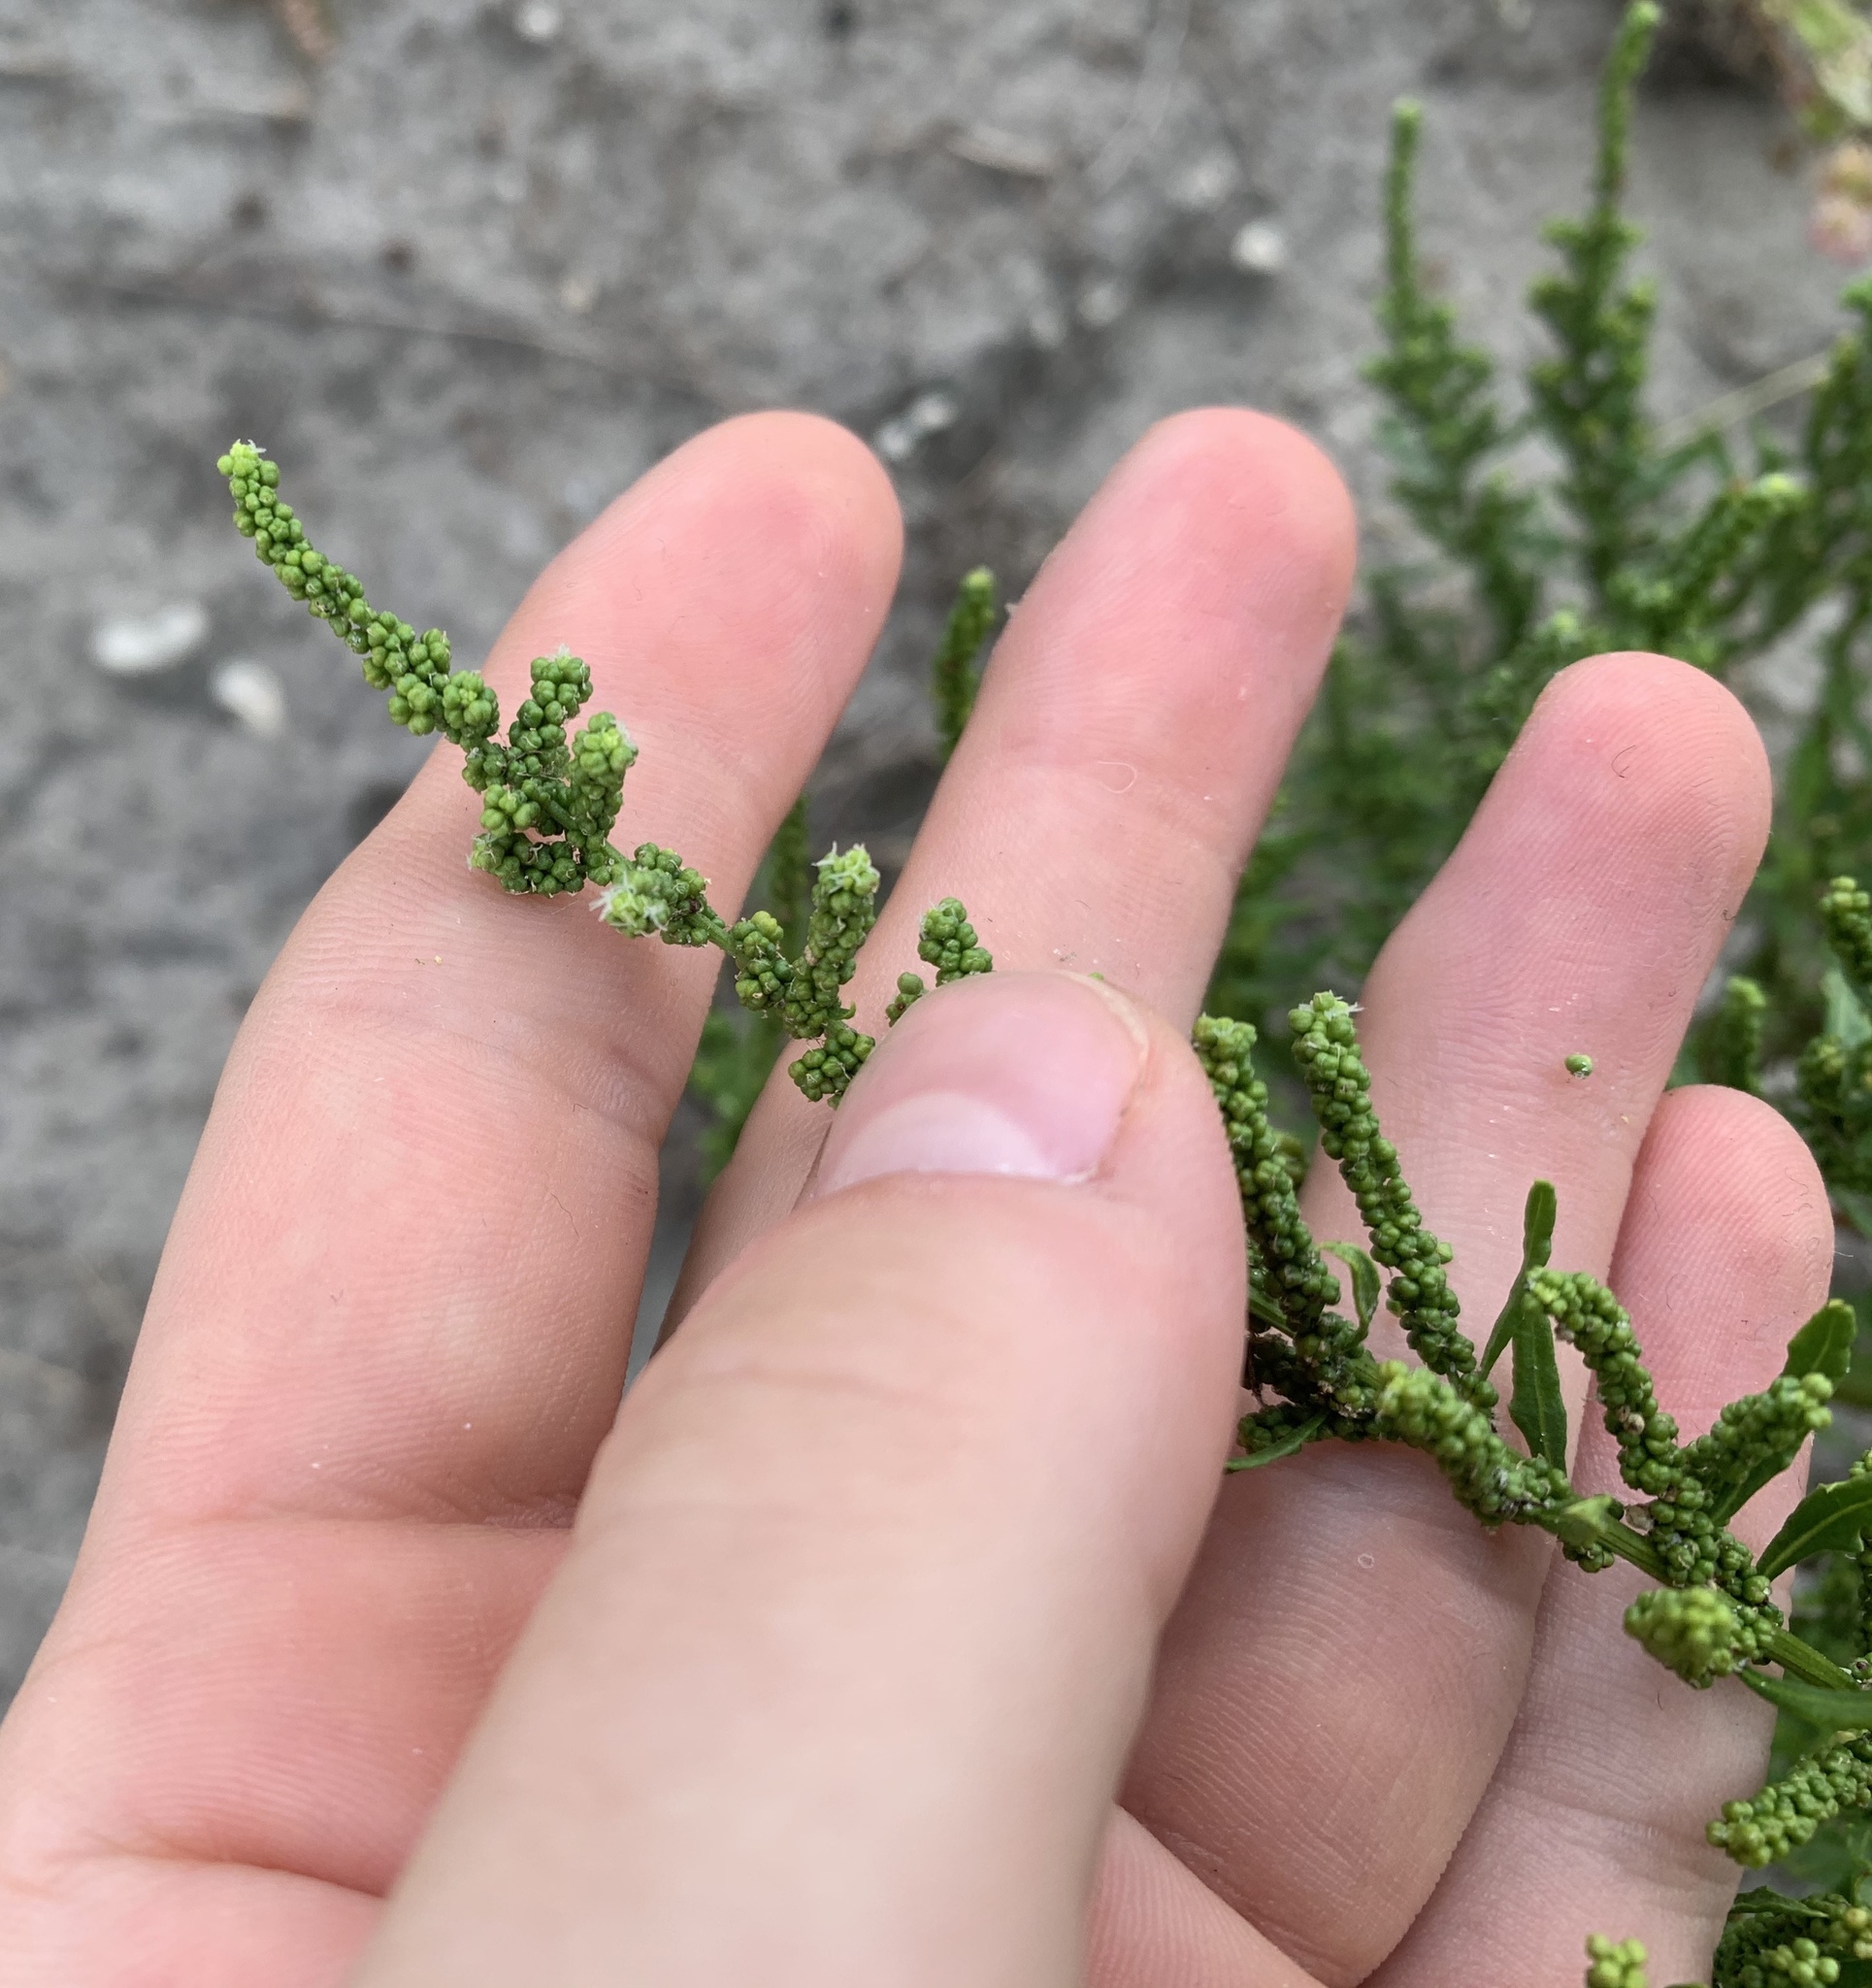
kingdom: Plantae
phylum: Tracheophyta
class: Magnoliopsida
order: Caryophyllales
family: Amaranthaceae
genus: Dysphania
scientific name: Dysphania ambrosioides
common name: Wormseed
